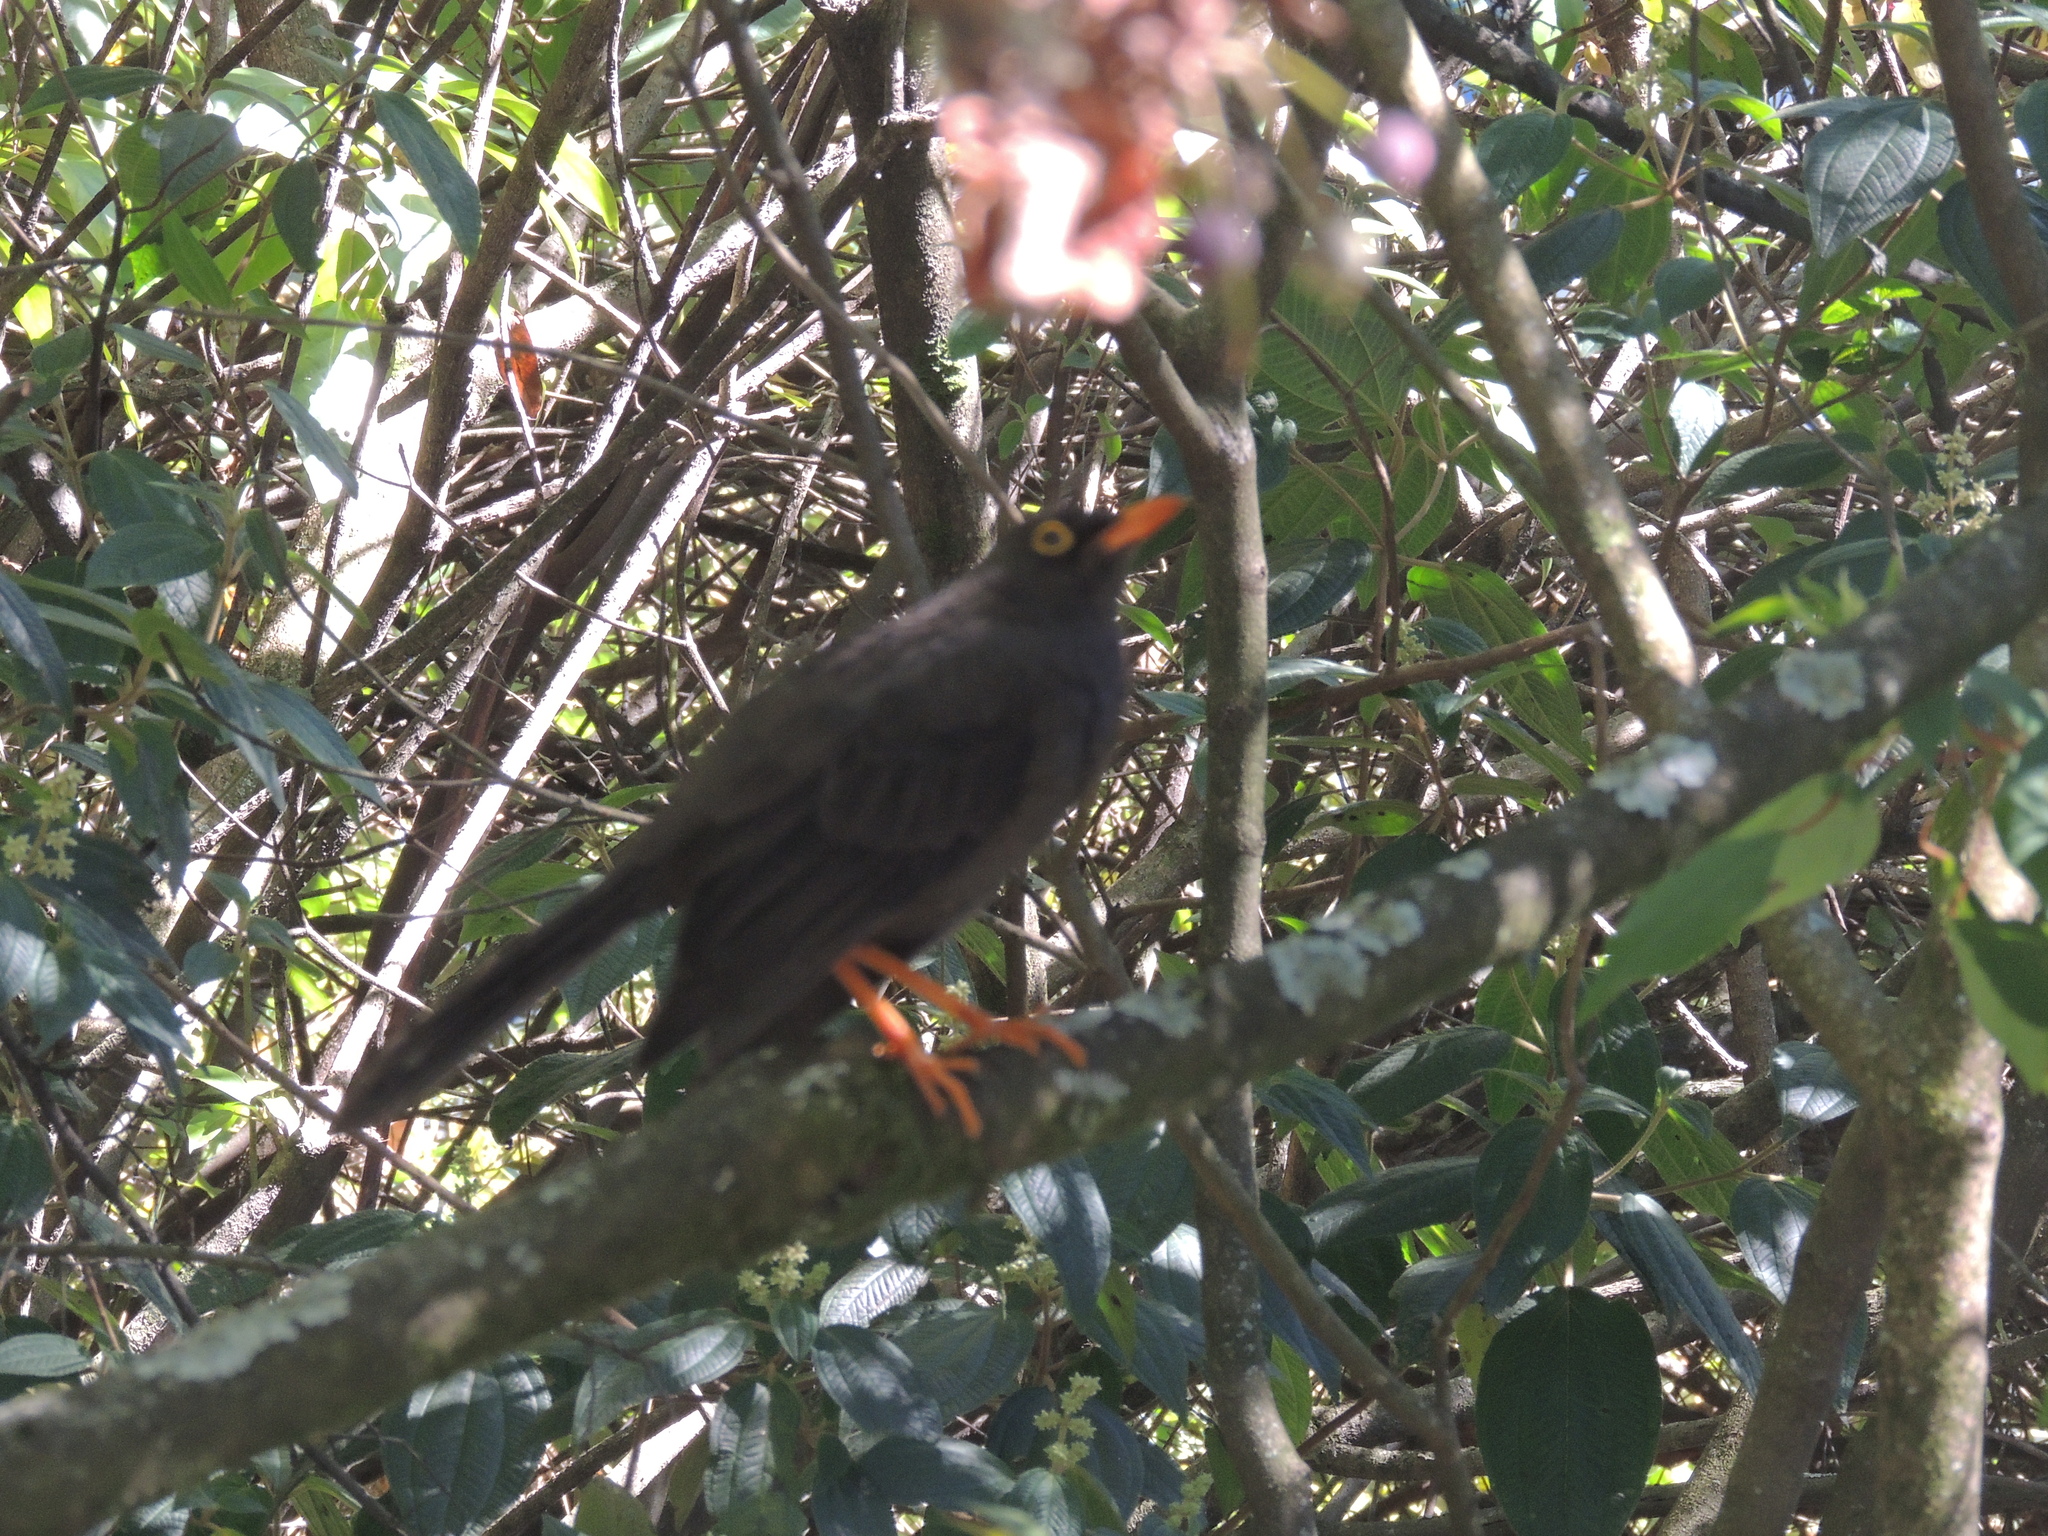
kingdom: Animalia
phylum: Chordata
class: Aves
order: Passeriformes
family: Turdidae
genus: Turdus
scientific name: Turdus fuscater
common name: Great thrush
